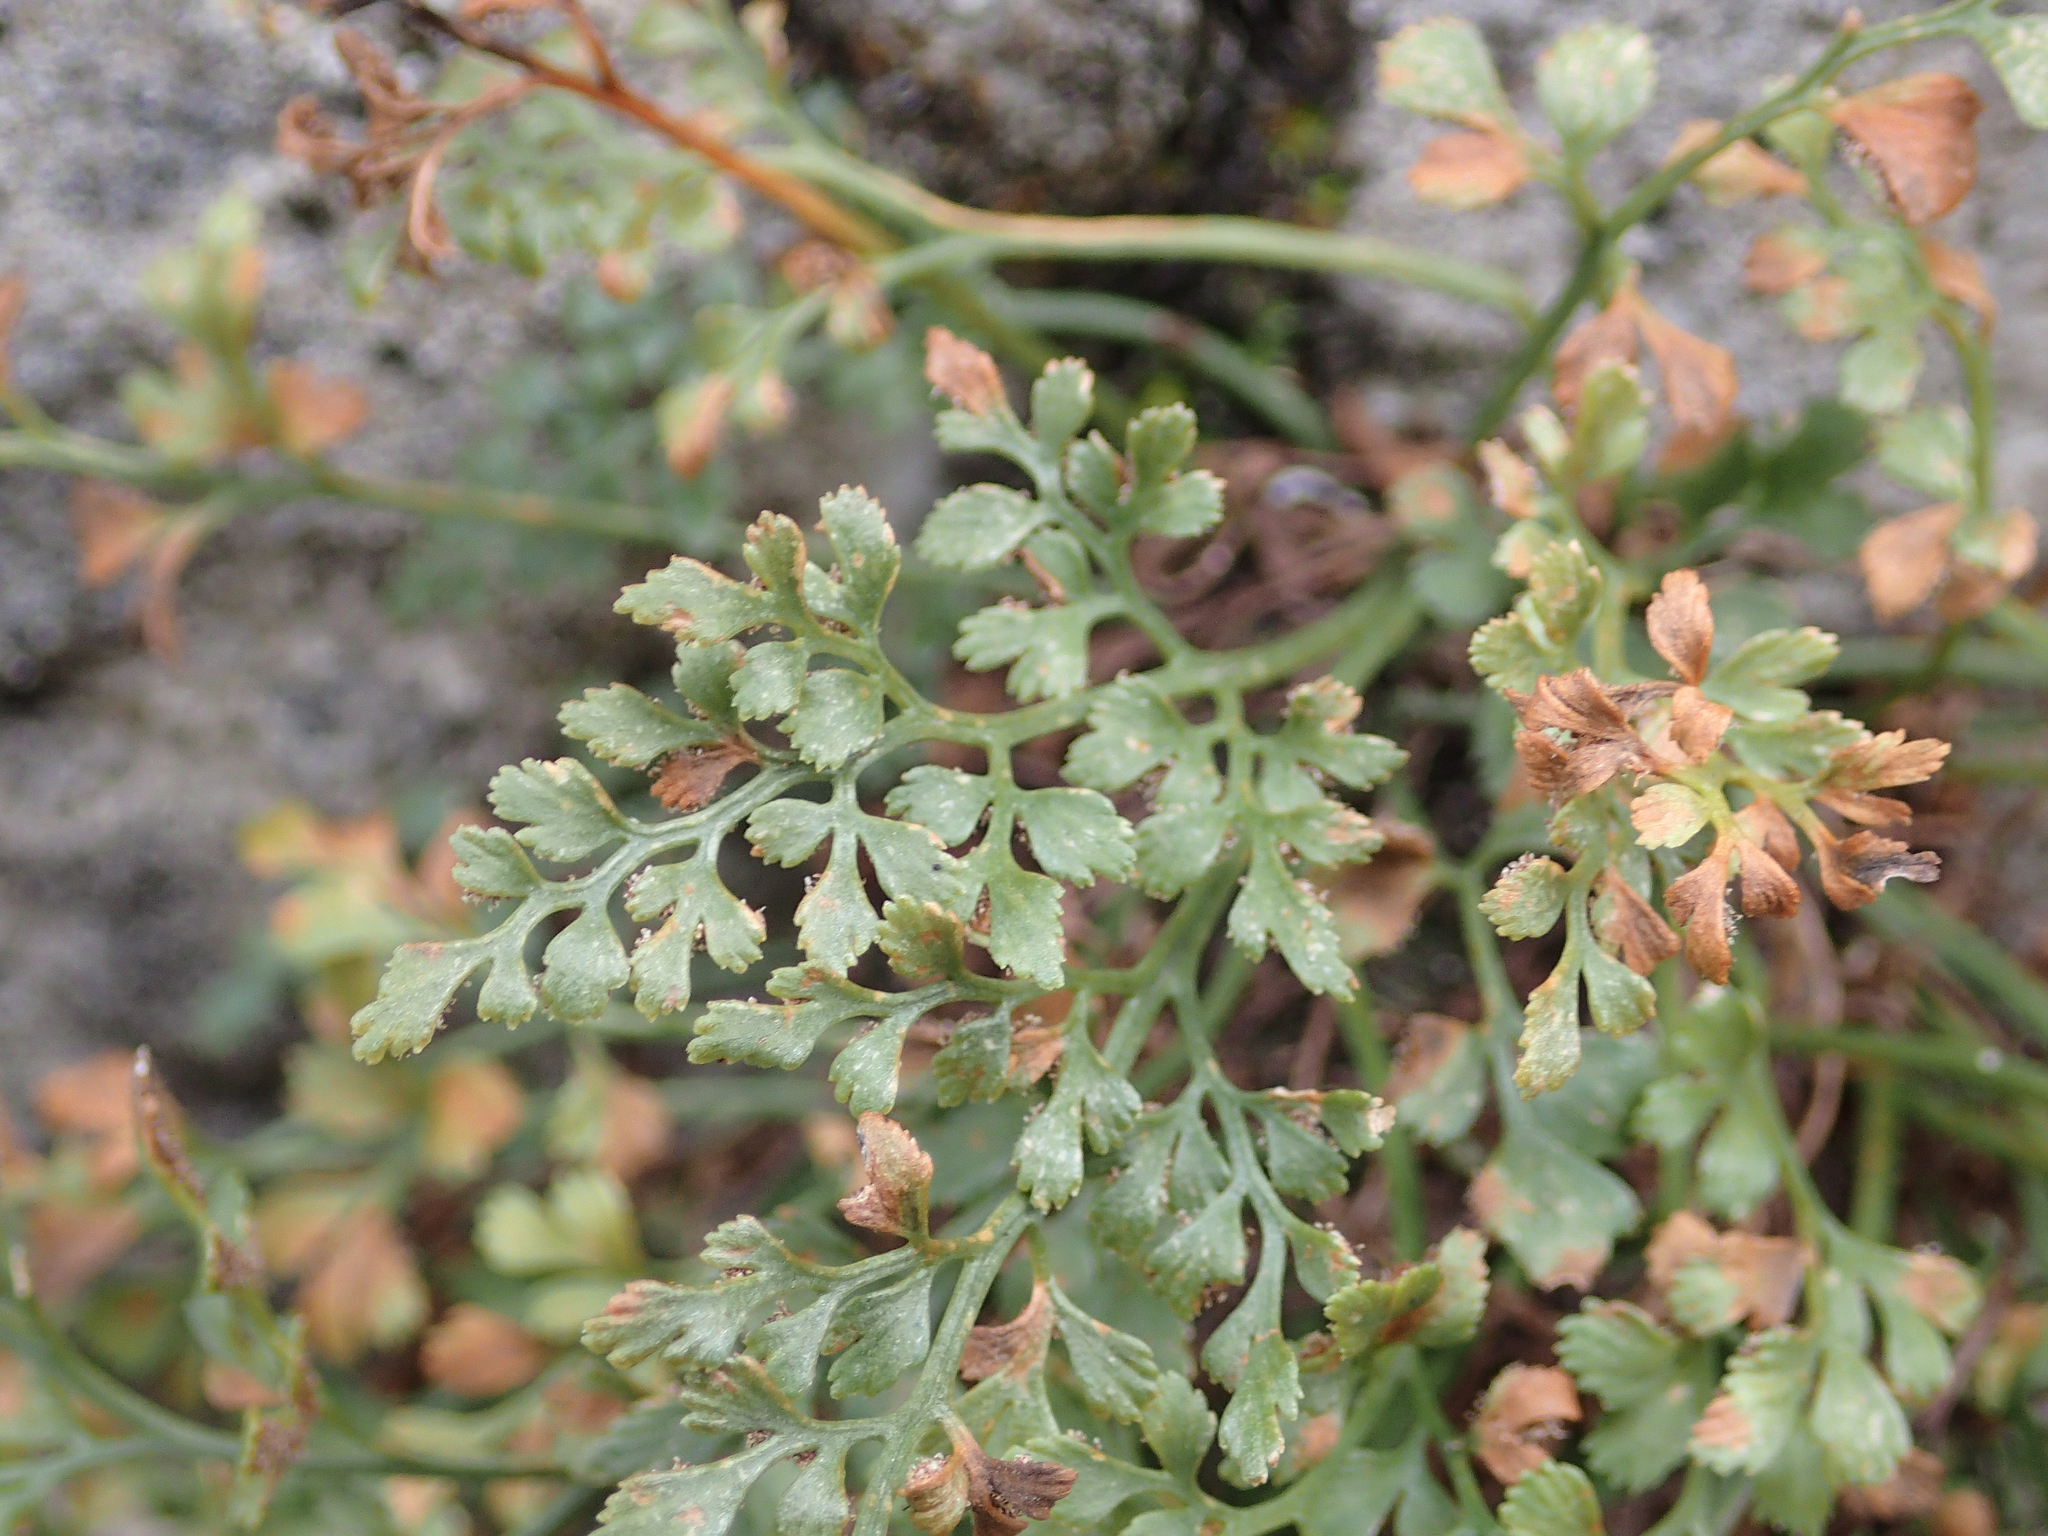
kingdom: Plantae
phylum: Tracheophyta
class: Polypodiopsida
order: Polypodiales
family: Aspleniaceae
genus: Asplenium
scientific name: Asplenium ruta-muraria
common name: Wall-rue
